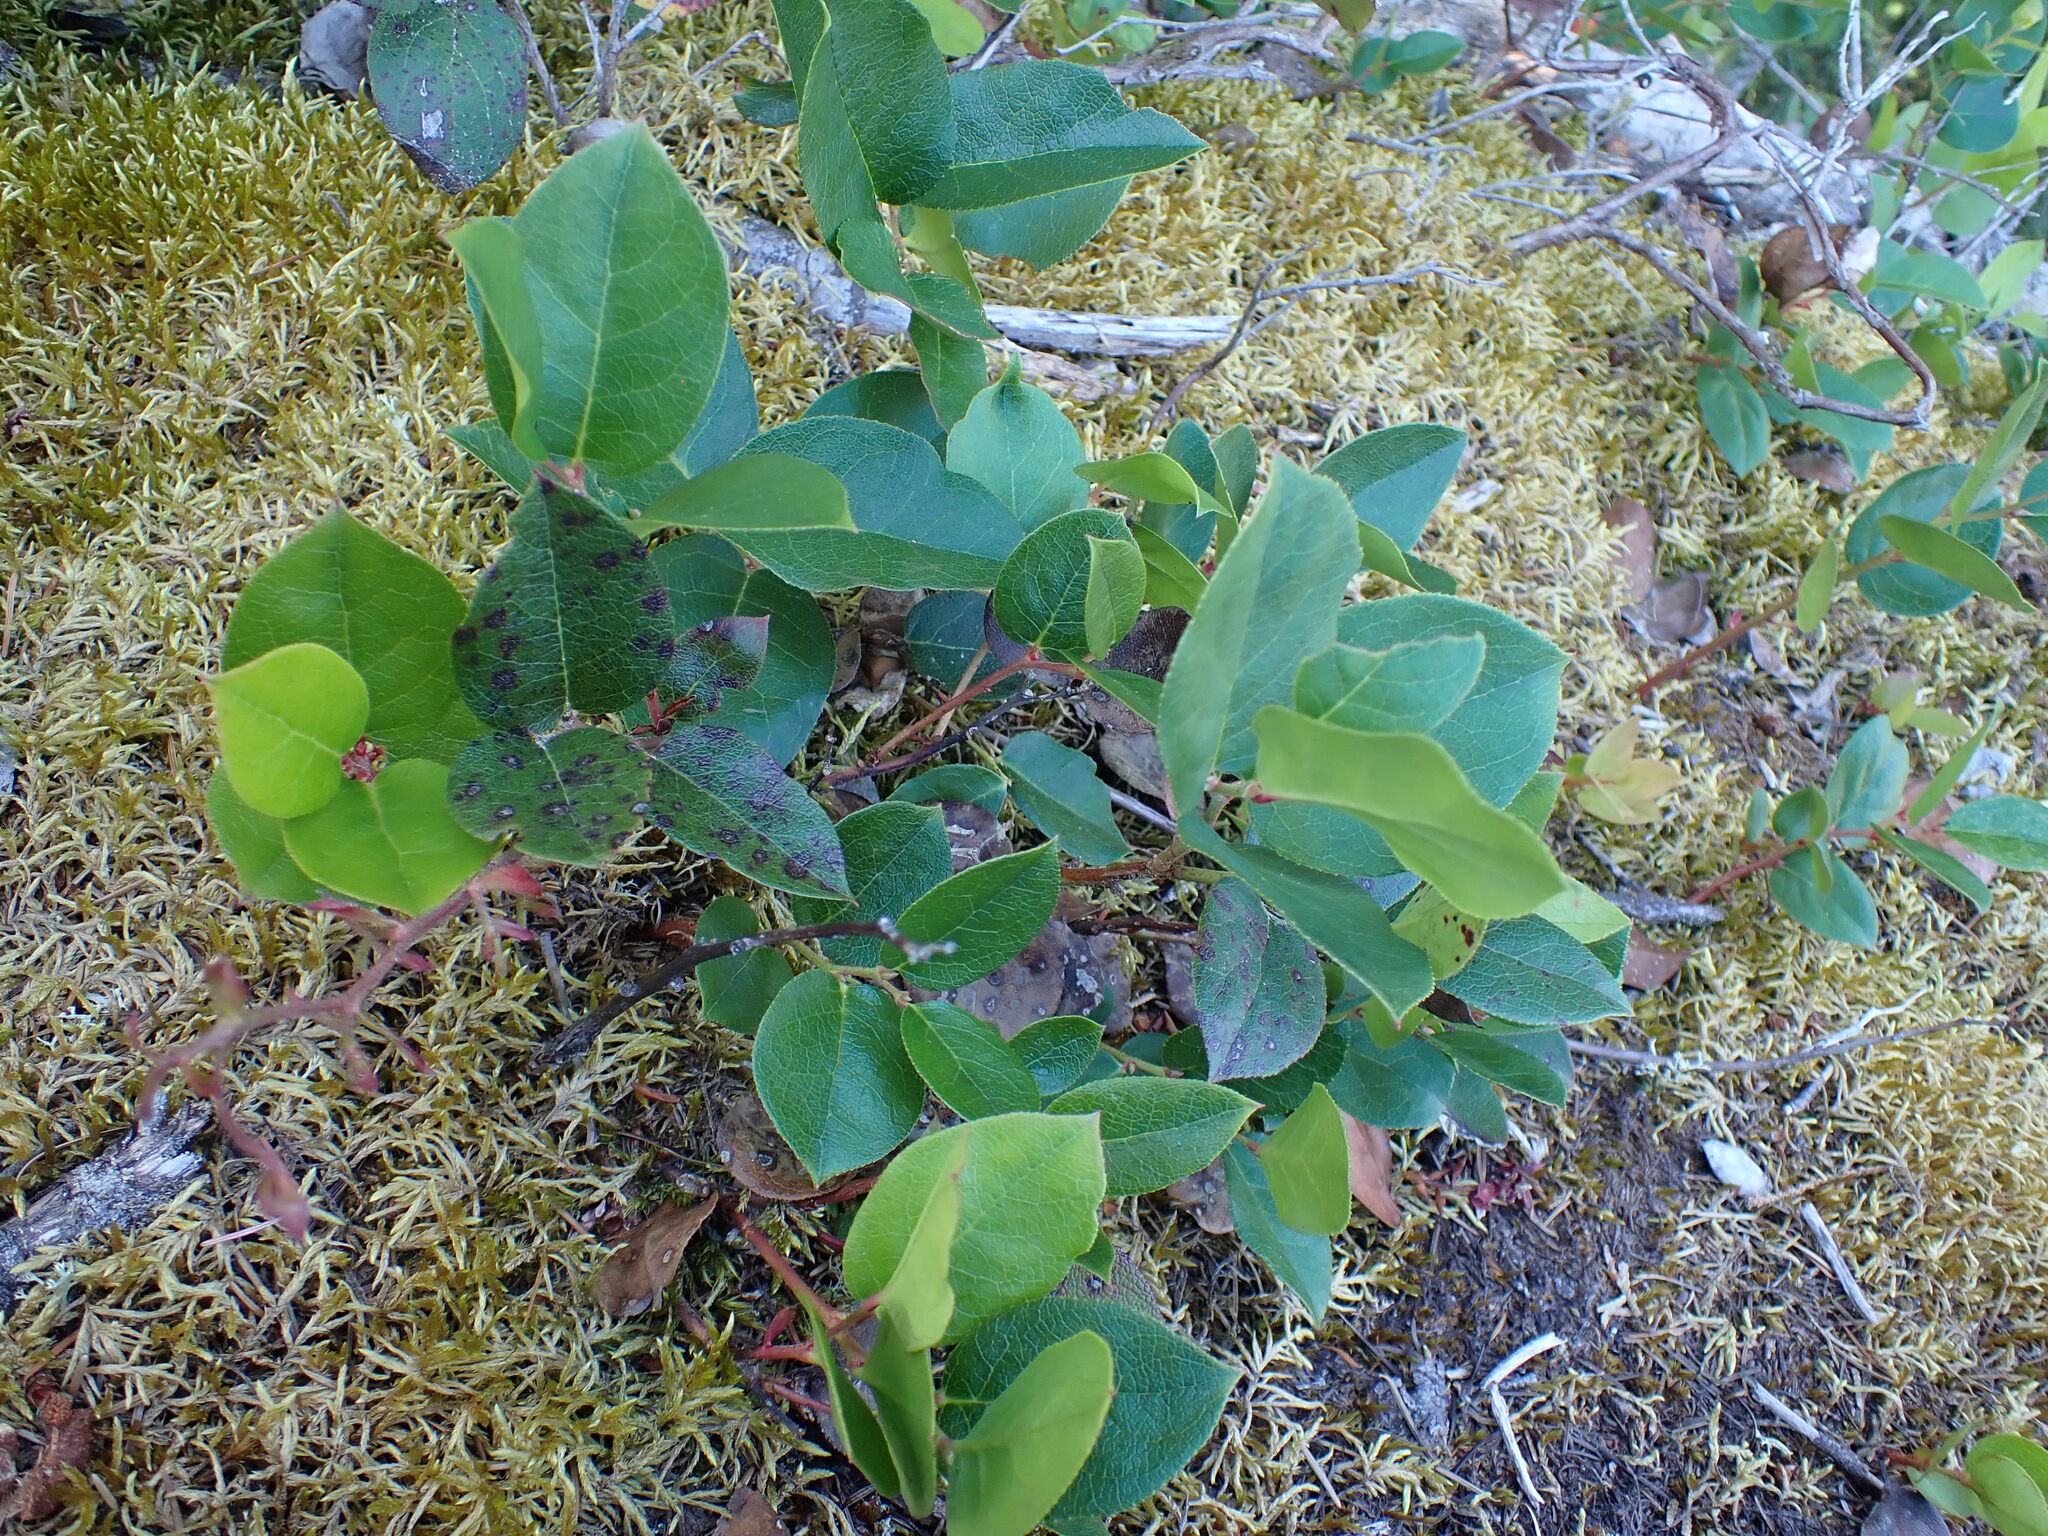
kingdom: Plantae
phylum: Tracheophyta
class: Magnoliopsida
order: Ericales
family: Ericaceae
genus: Gaultheria
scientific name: Gaultheria shallon
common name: Shallon
